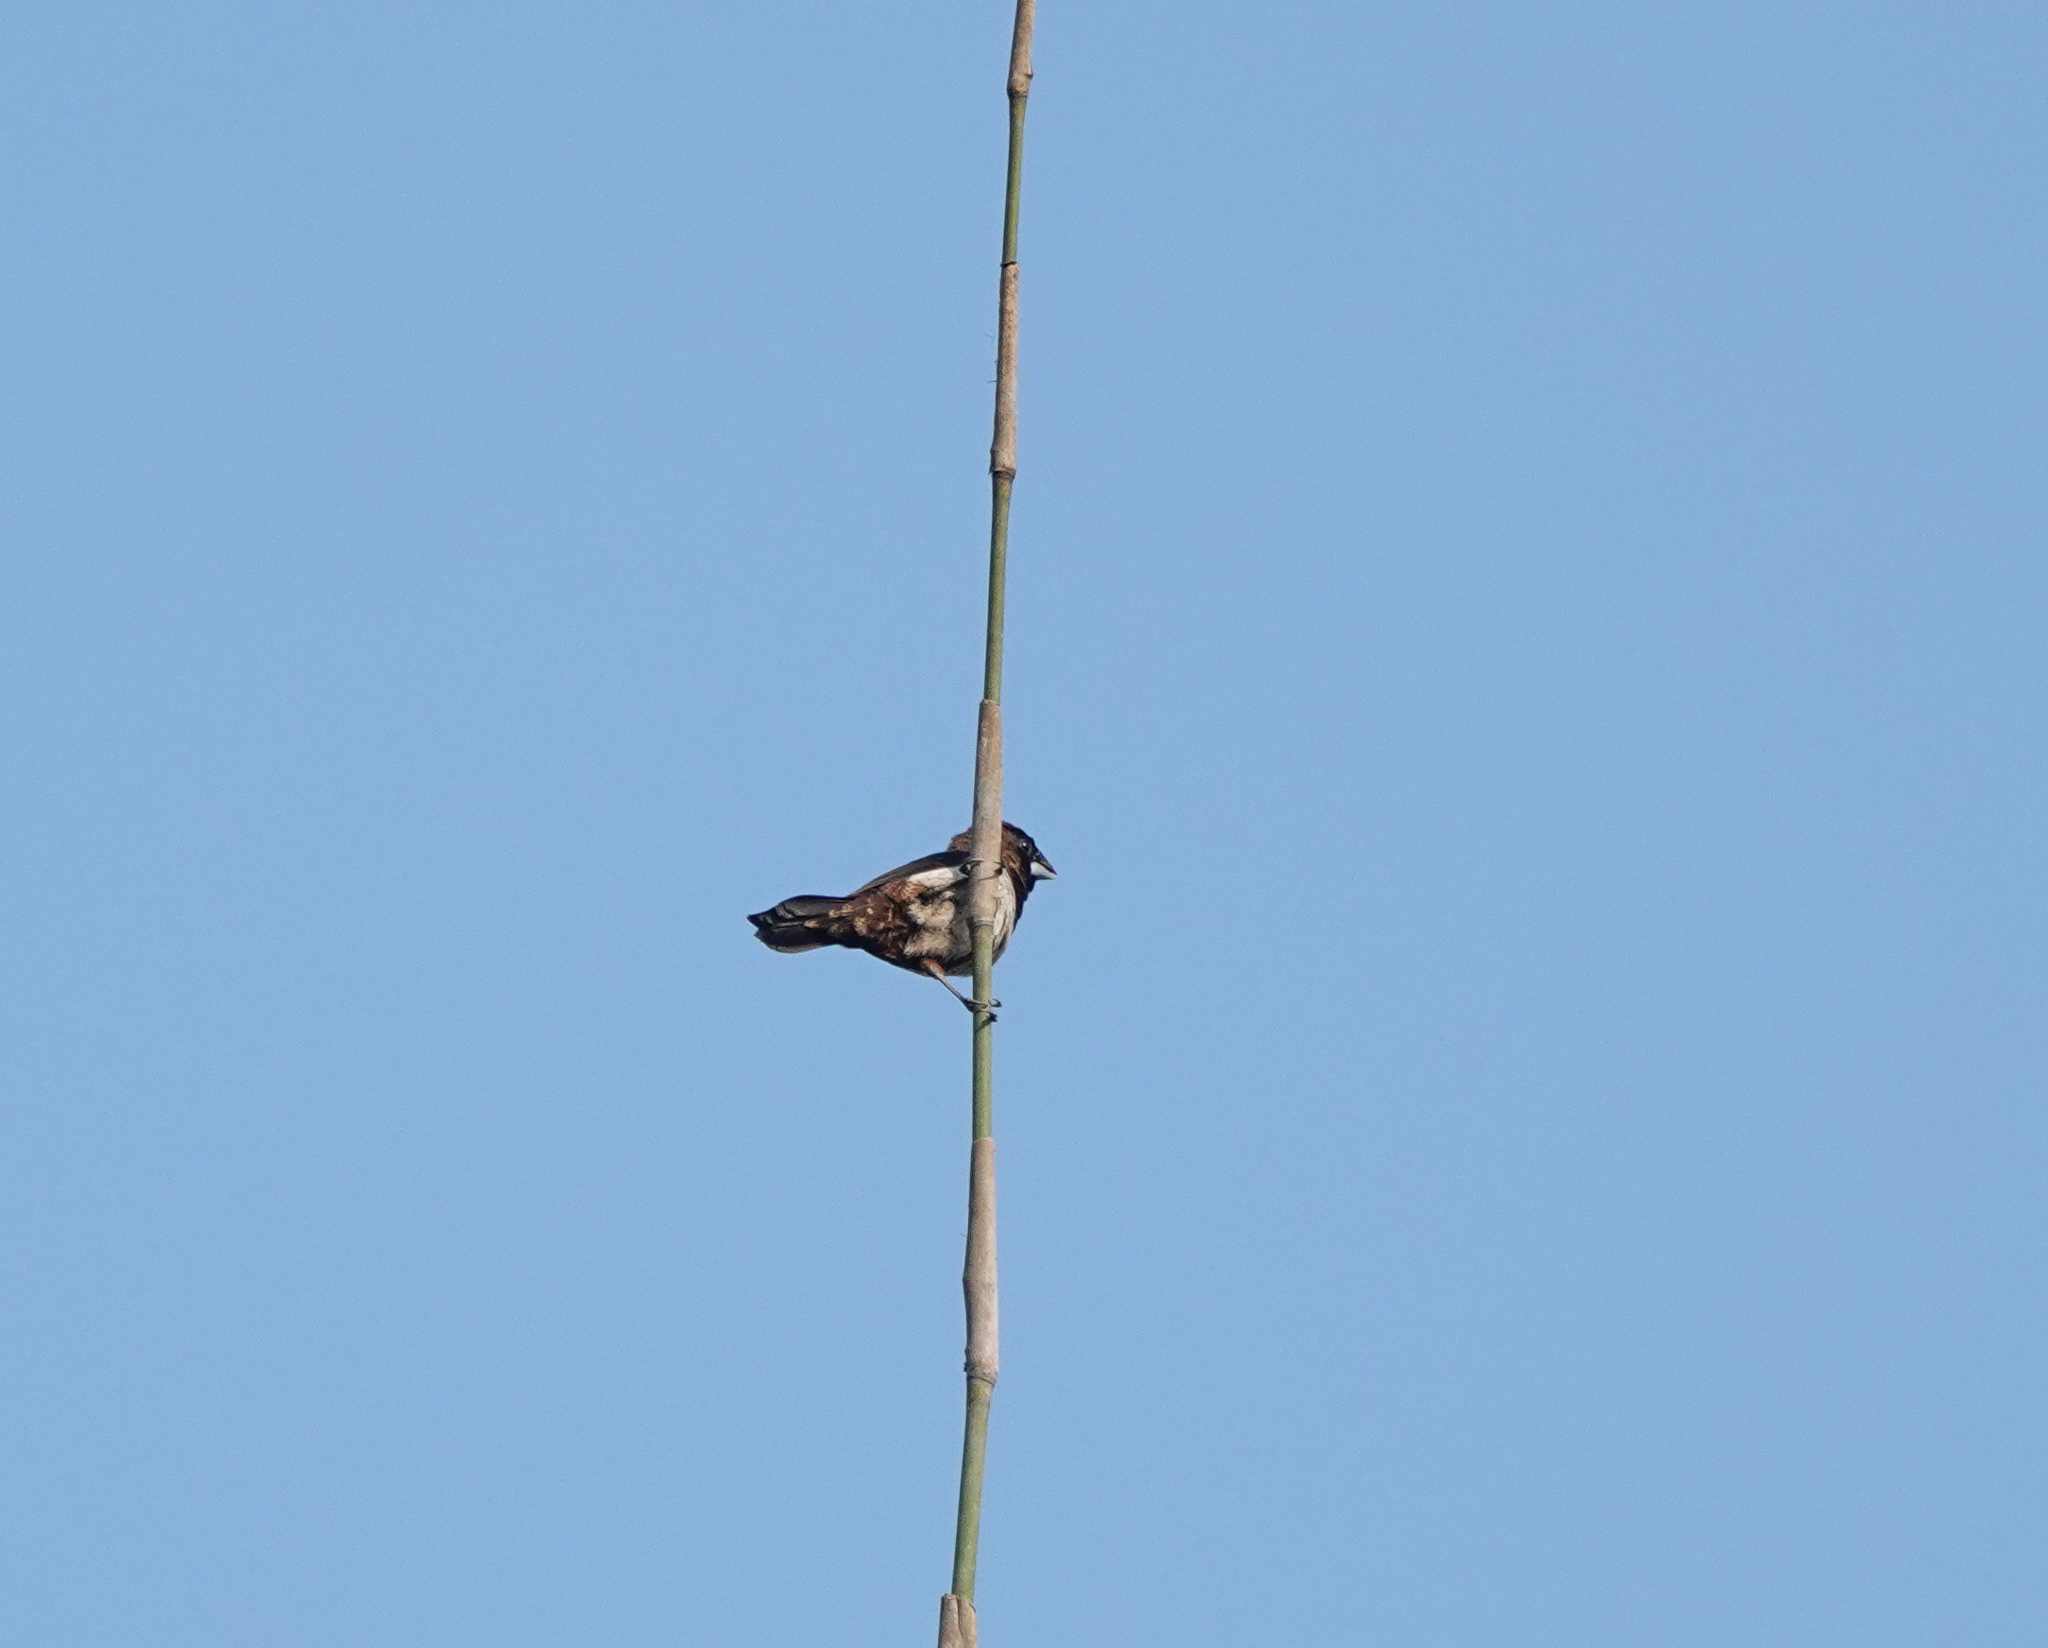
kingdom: Animalia
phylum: Chordata
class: Aves
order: Passeriformes
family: Estrildidae
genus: Lonchura
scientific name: Lonchura striata
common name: White-rumped munia
